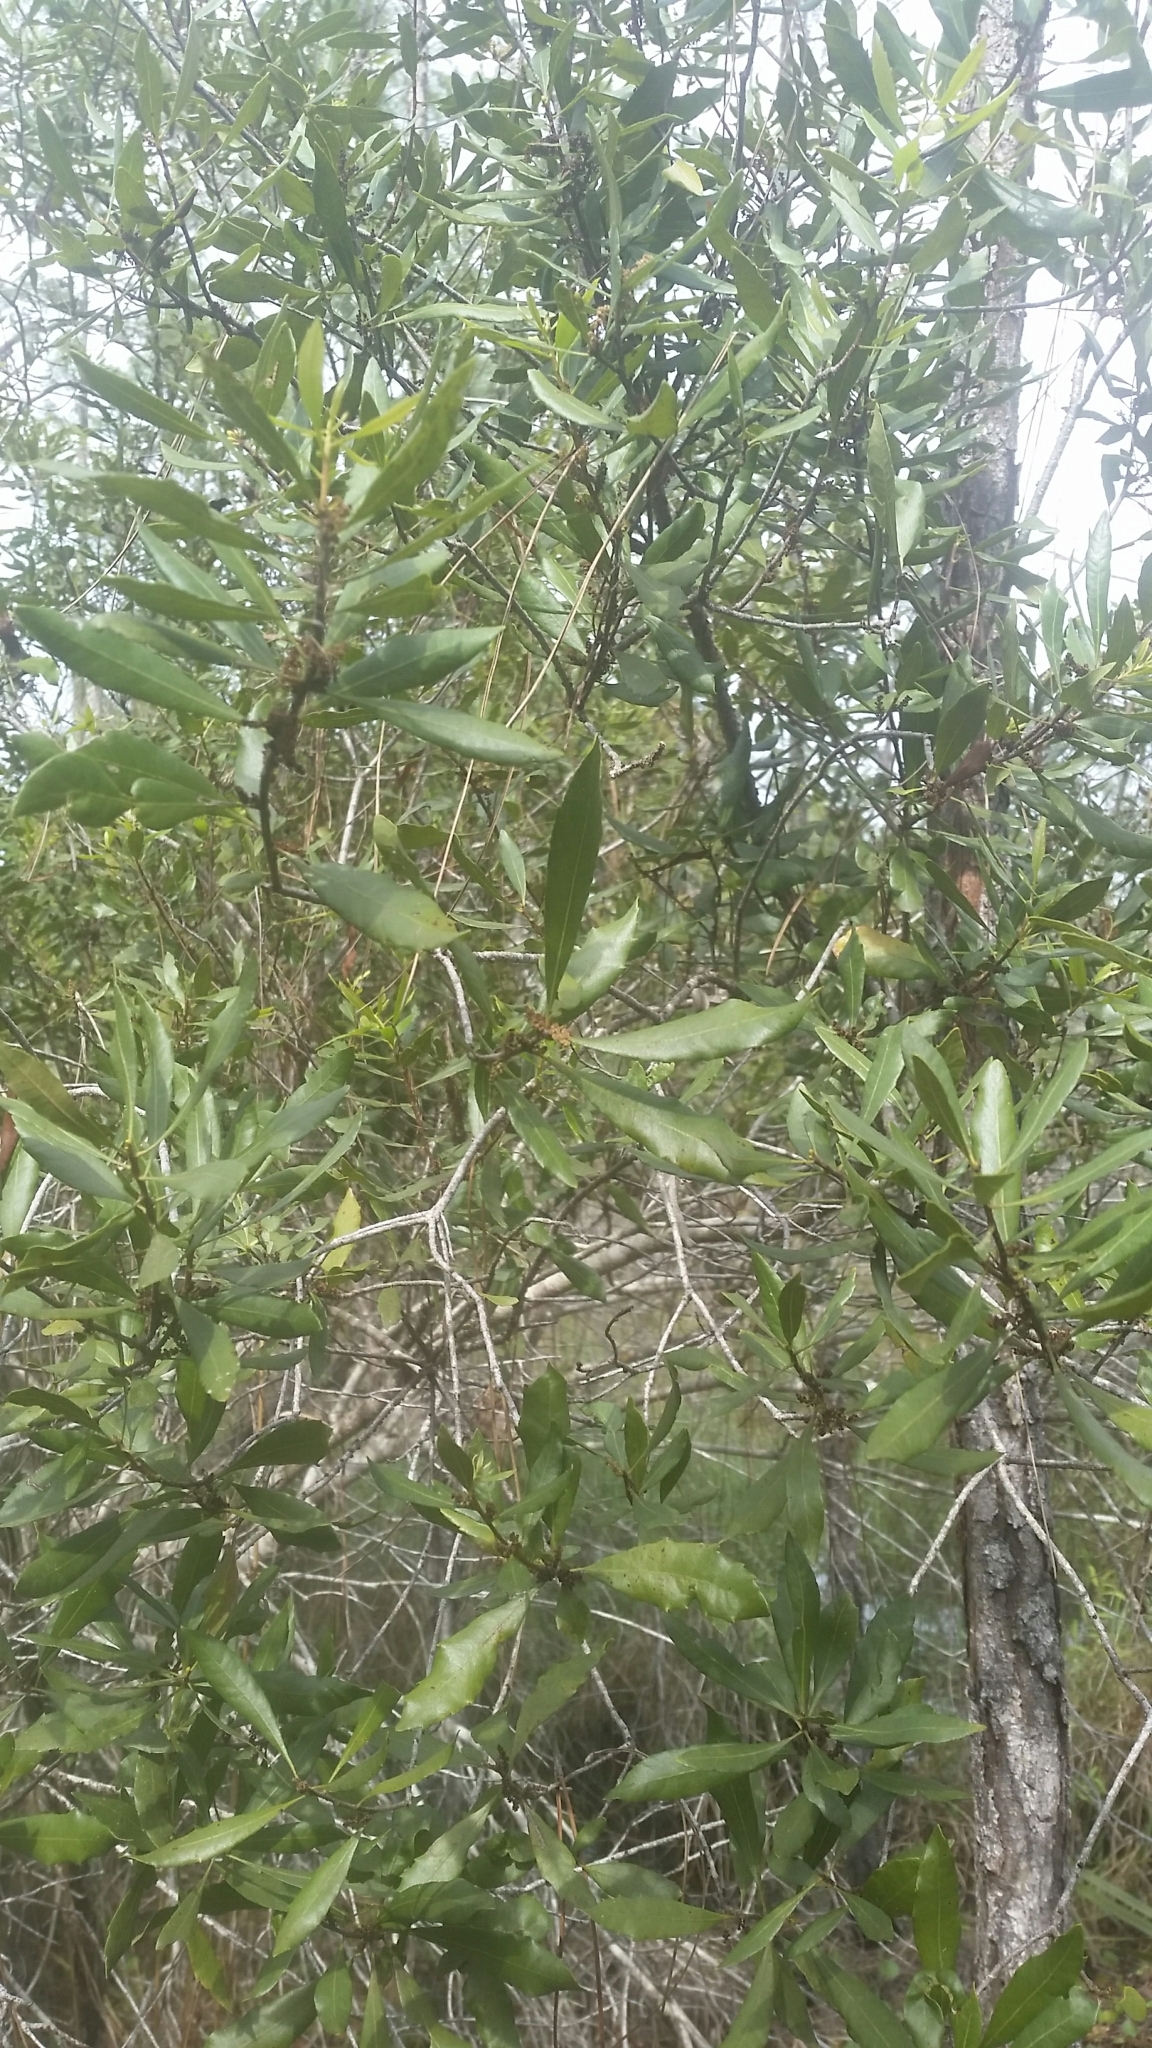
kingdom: Plantae
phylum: Tracheophyta
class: Magnoliopsida
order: Fagales
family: Myricaceae
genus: Morella
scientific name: Morella cerifera
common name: Wax myrtle
